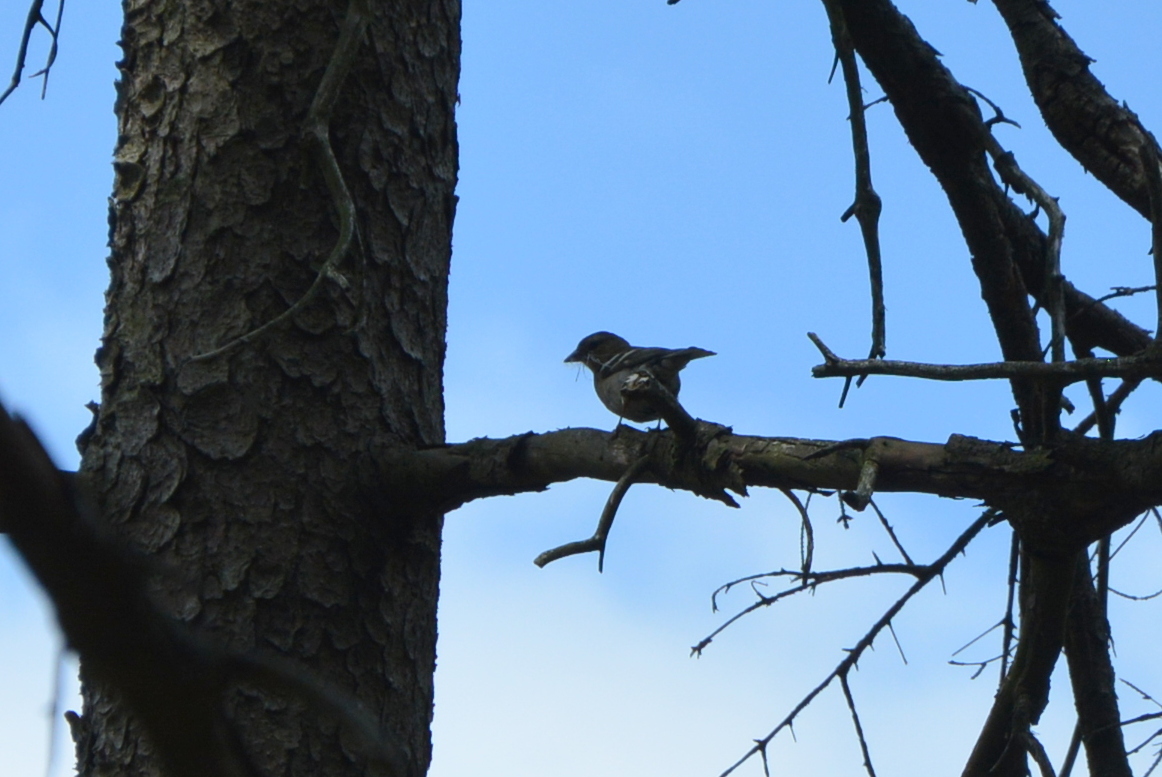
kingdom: Animalia
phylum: Chordata
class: Aves
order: Passeriformes
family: Fringillidae
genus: Fringilla
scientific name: Fringilla coelebs
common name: Common chaffinch
